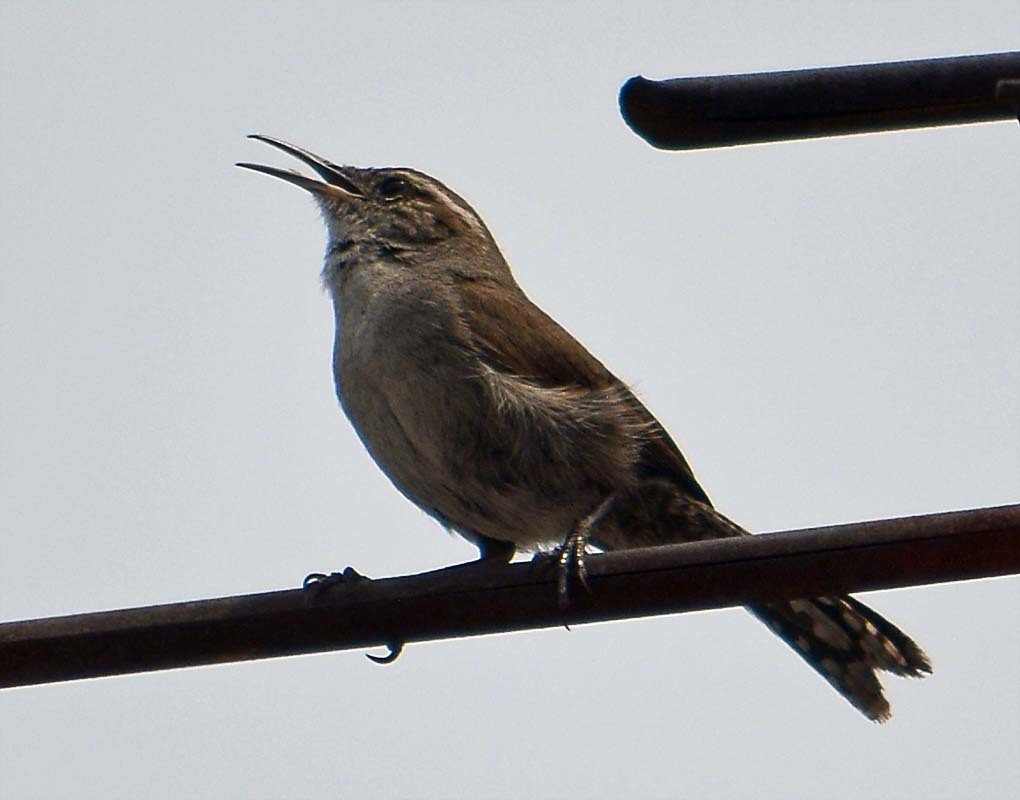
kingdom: Animalia
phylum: Chordata
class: Aves
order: Passeriformes
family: Troglodytidae
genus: Thryomanes
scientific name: Thryomanes bewickii
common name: Bewick's wren
